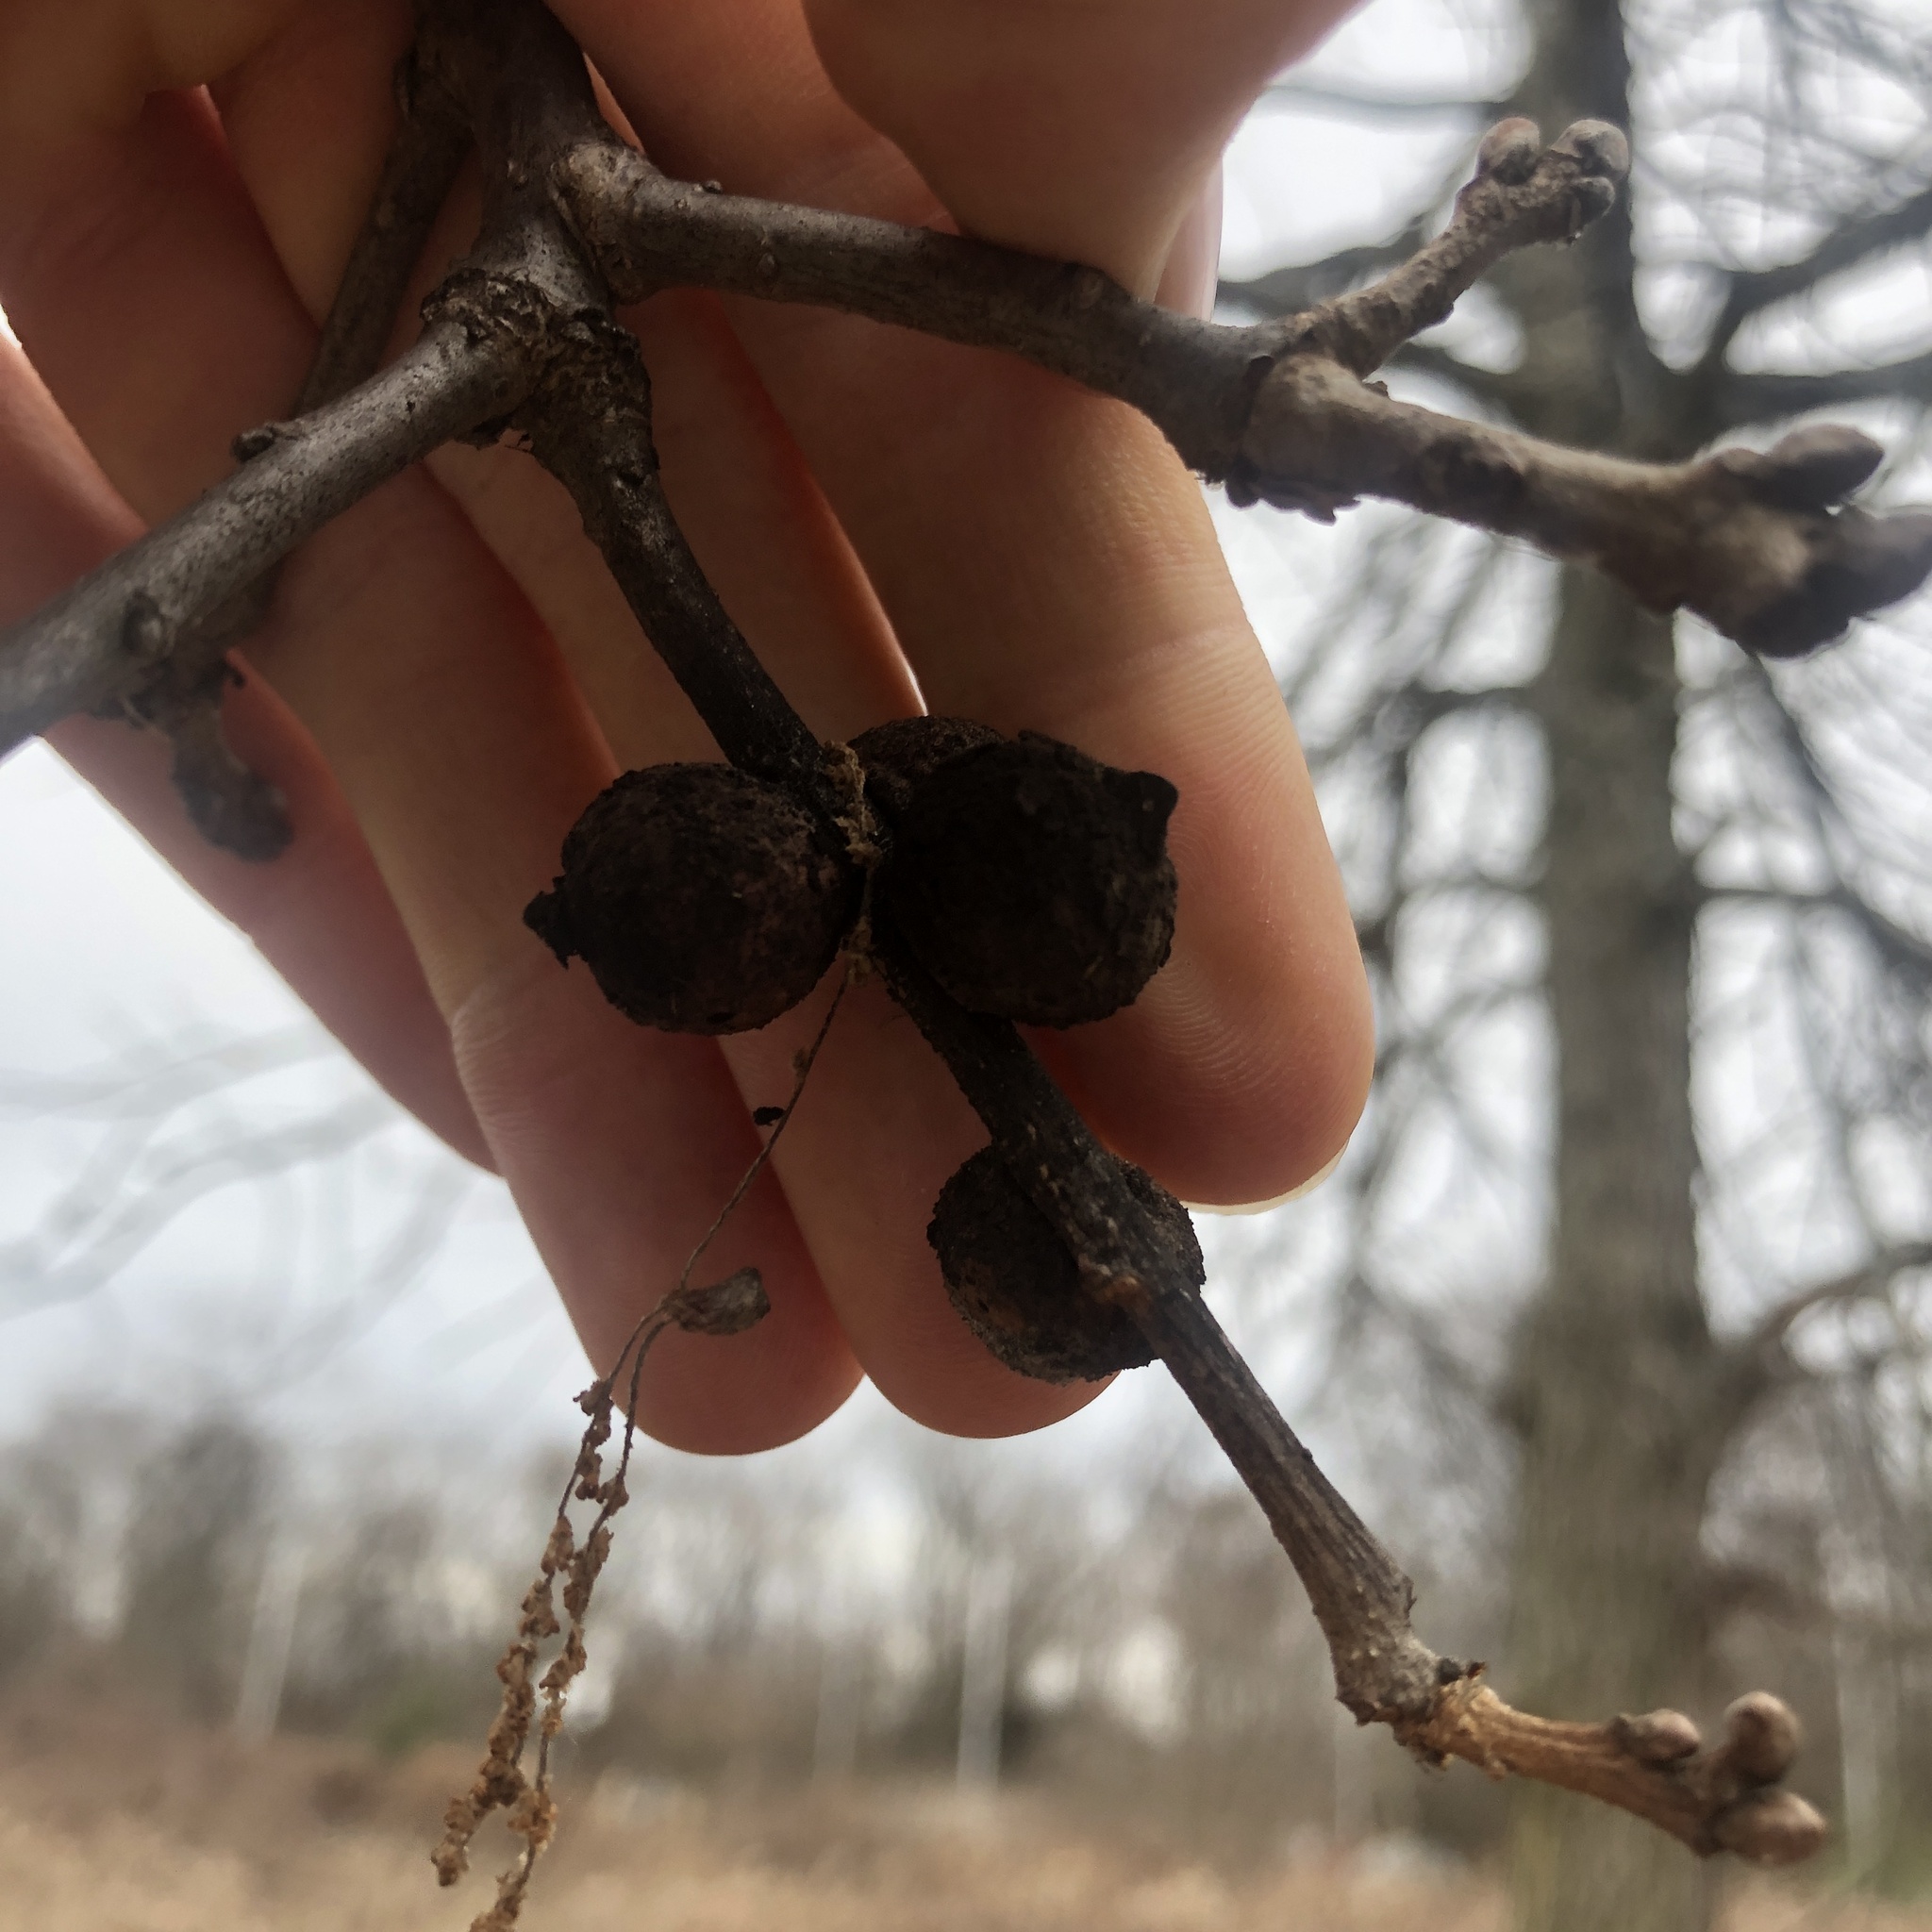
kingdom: Animalia
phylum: Arthropoda
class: Insecta
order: Hymenoptera
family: Cynipidae
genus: Disholcaspis
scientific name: Disholcaspis
